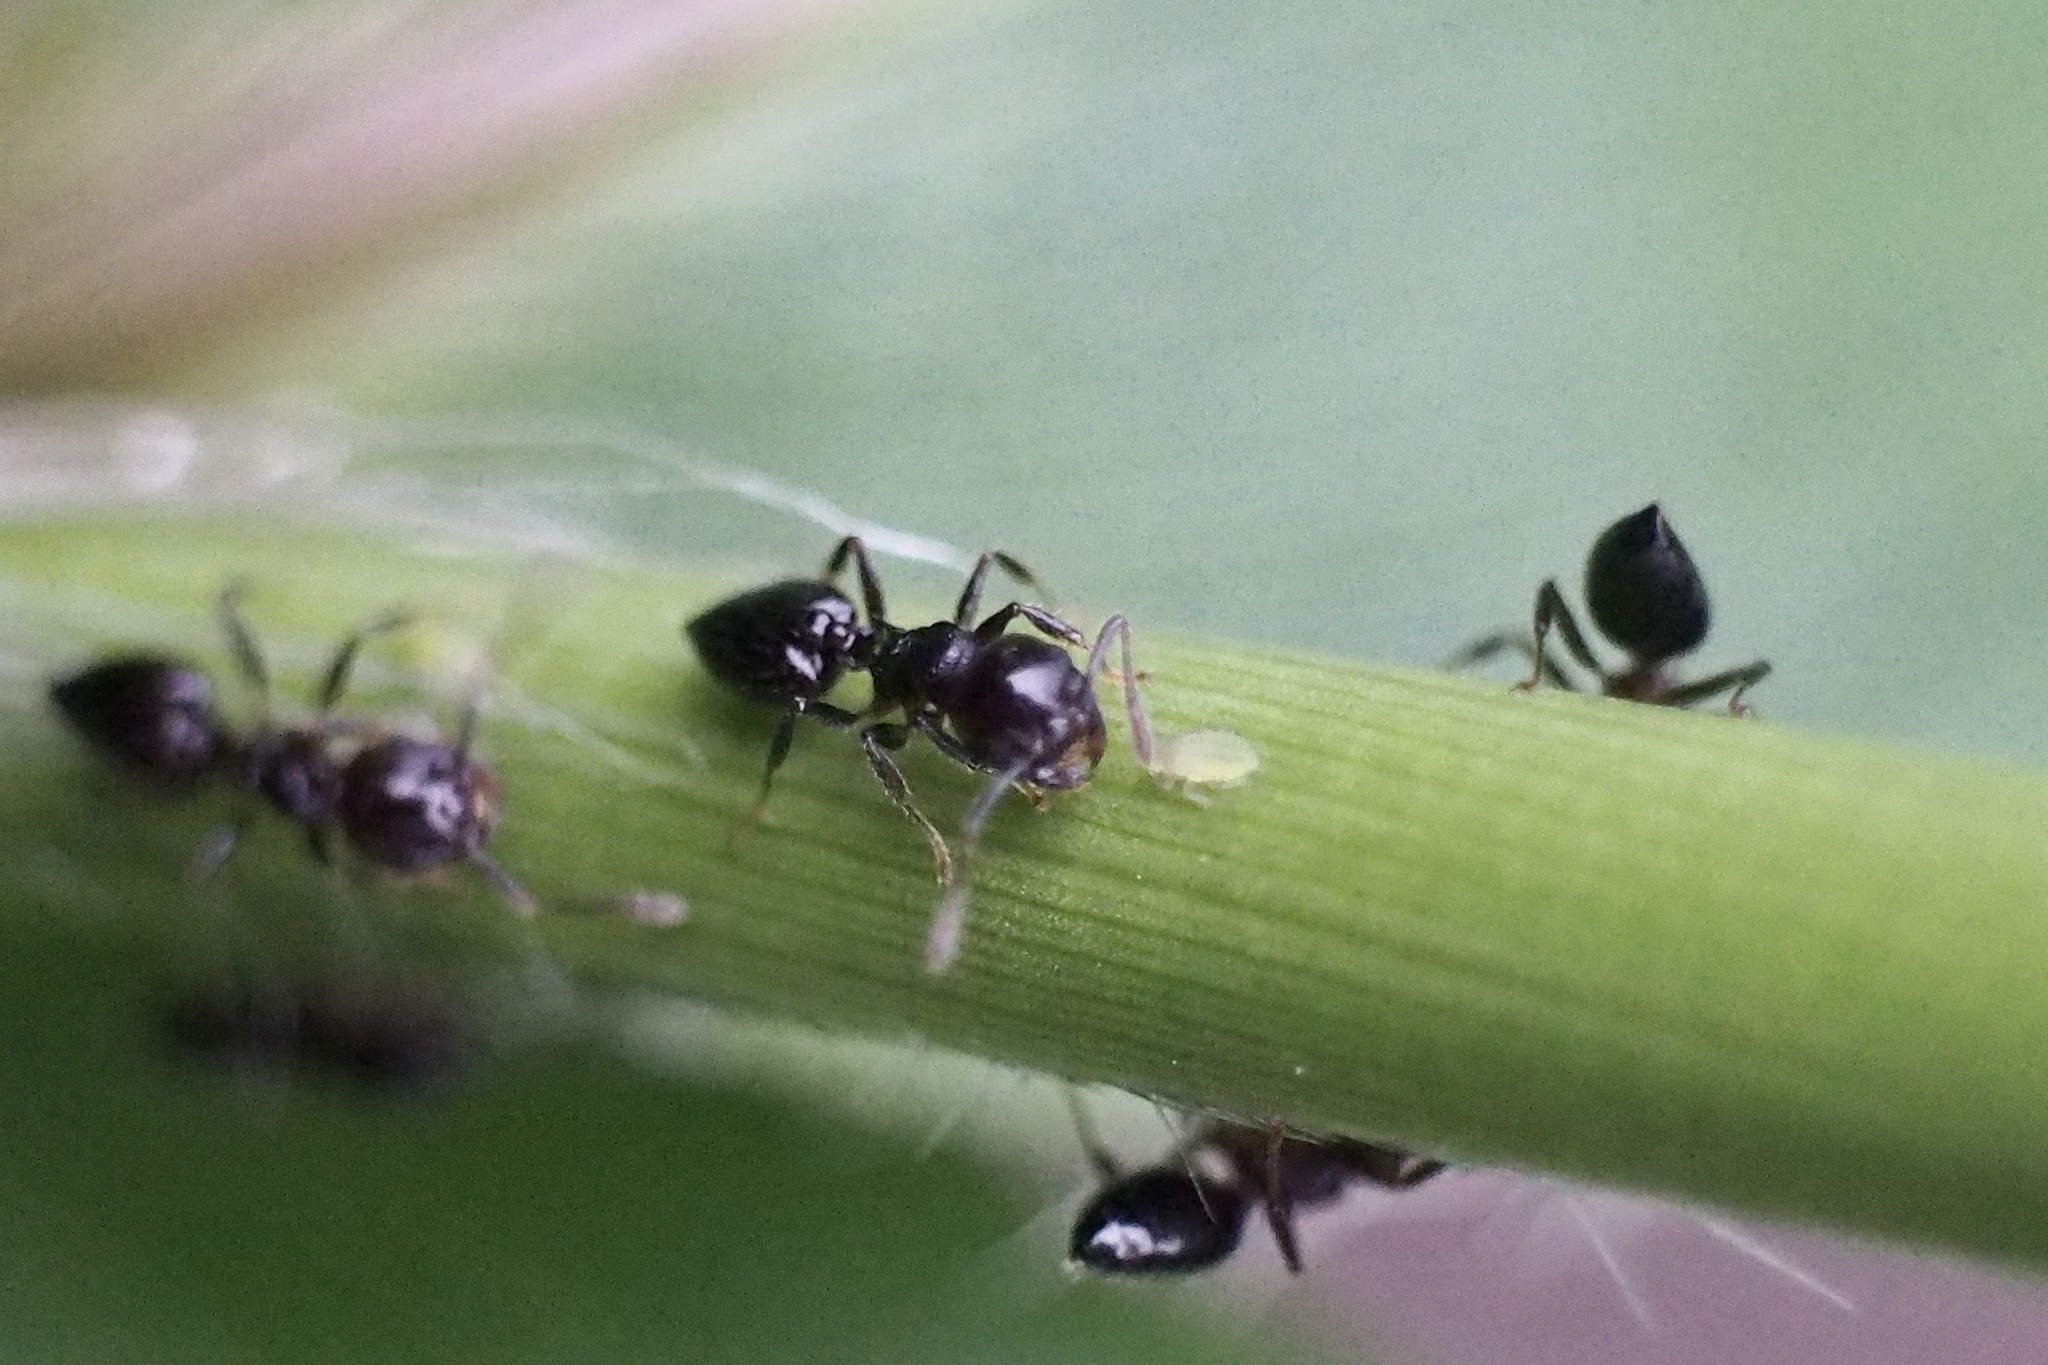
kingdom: Animalia
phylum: Arthropoda
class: Insecta
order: Hymenoptera
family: Formicidae
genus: Crematogaster
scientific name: Crematogaster teranishii
